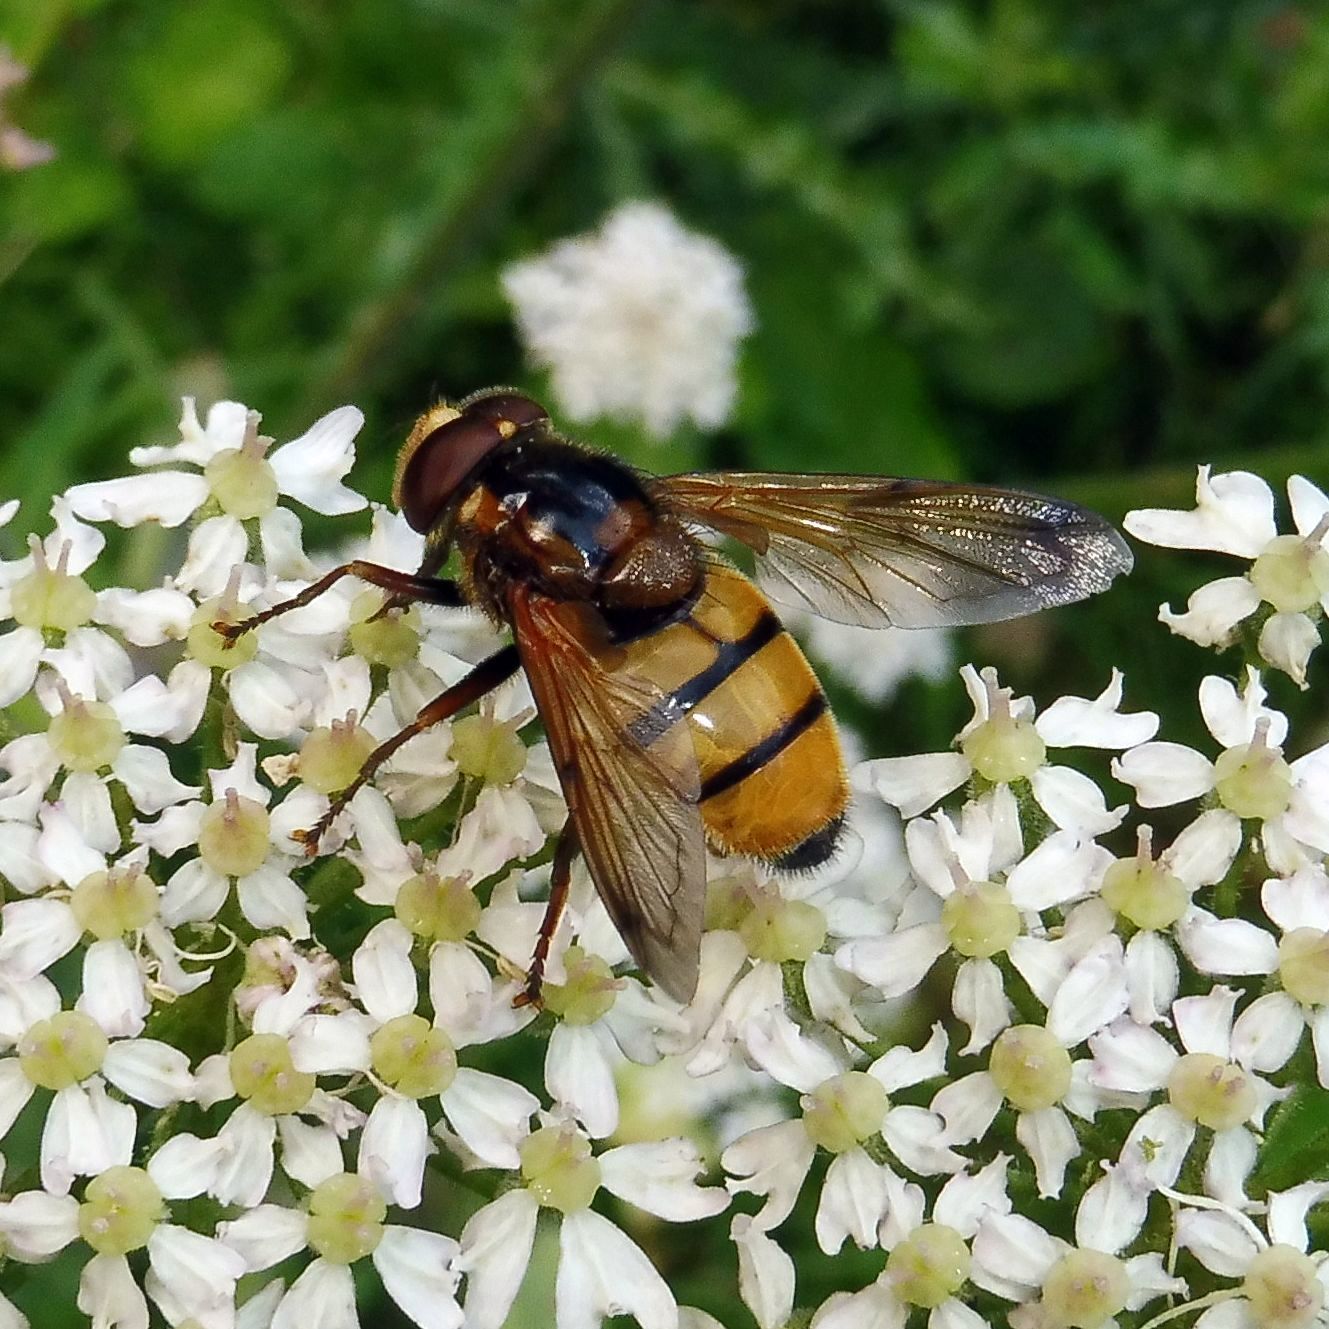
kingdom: Animalia
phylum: Arthropoda
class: Insecta
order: Diptera
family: Syrphidae
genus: Volucella
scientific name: Volucella inanis
